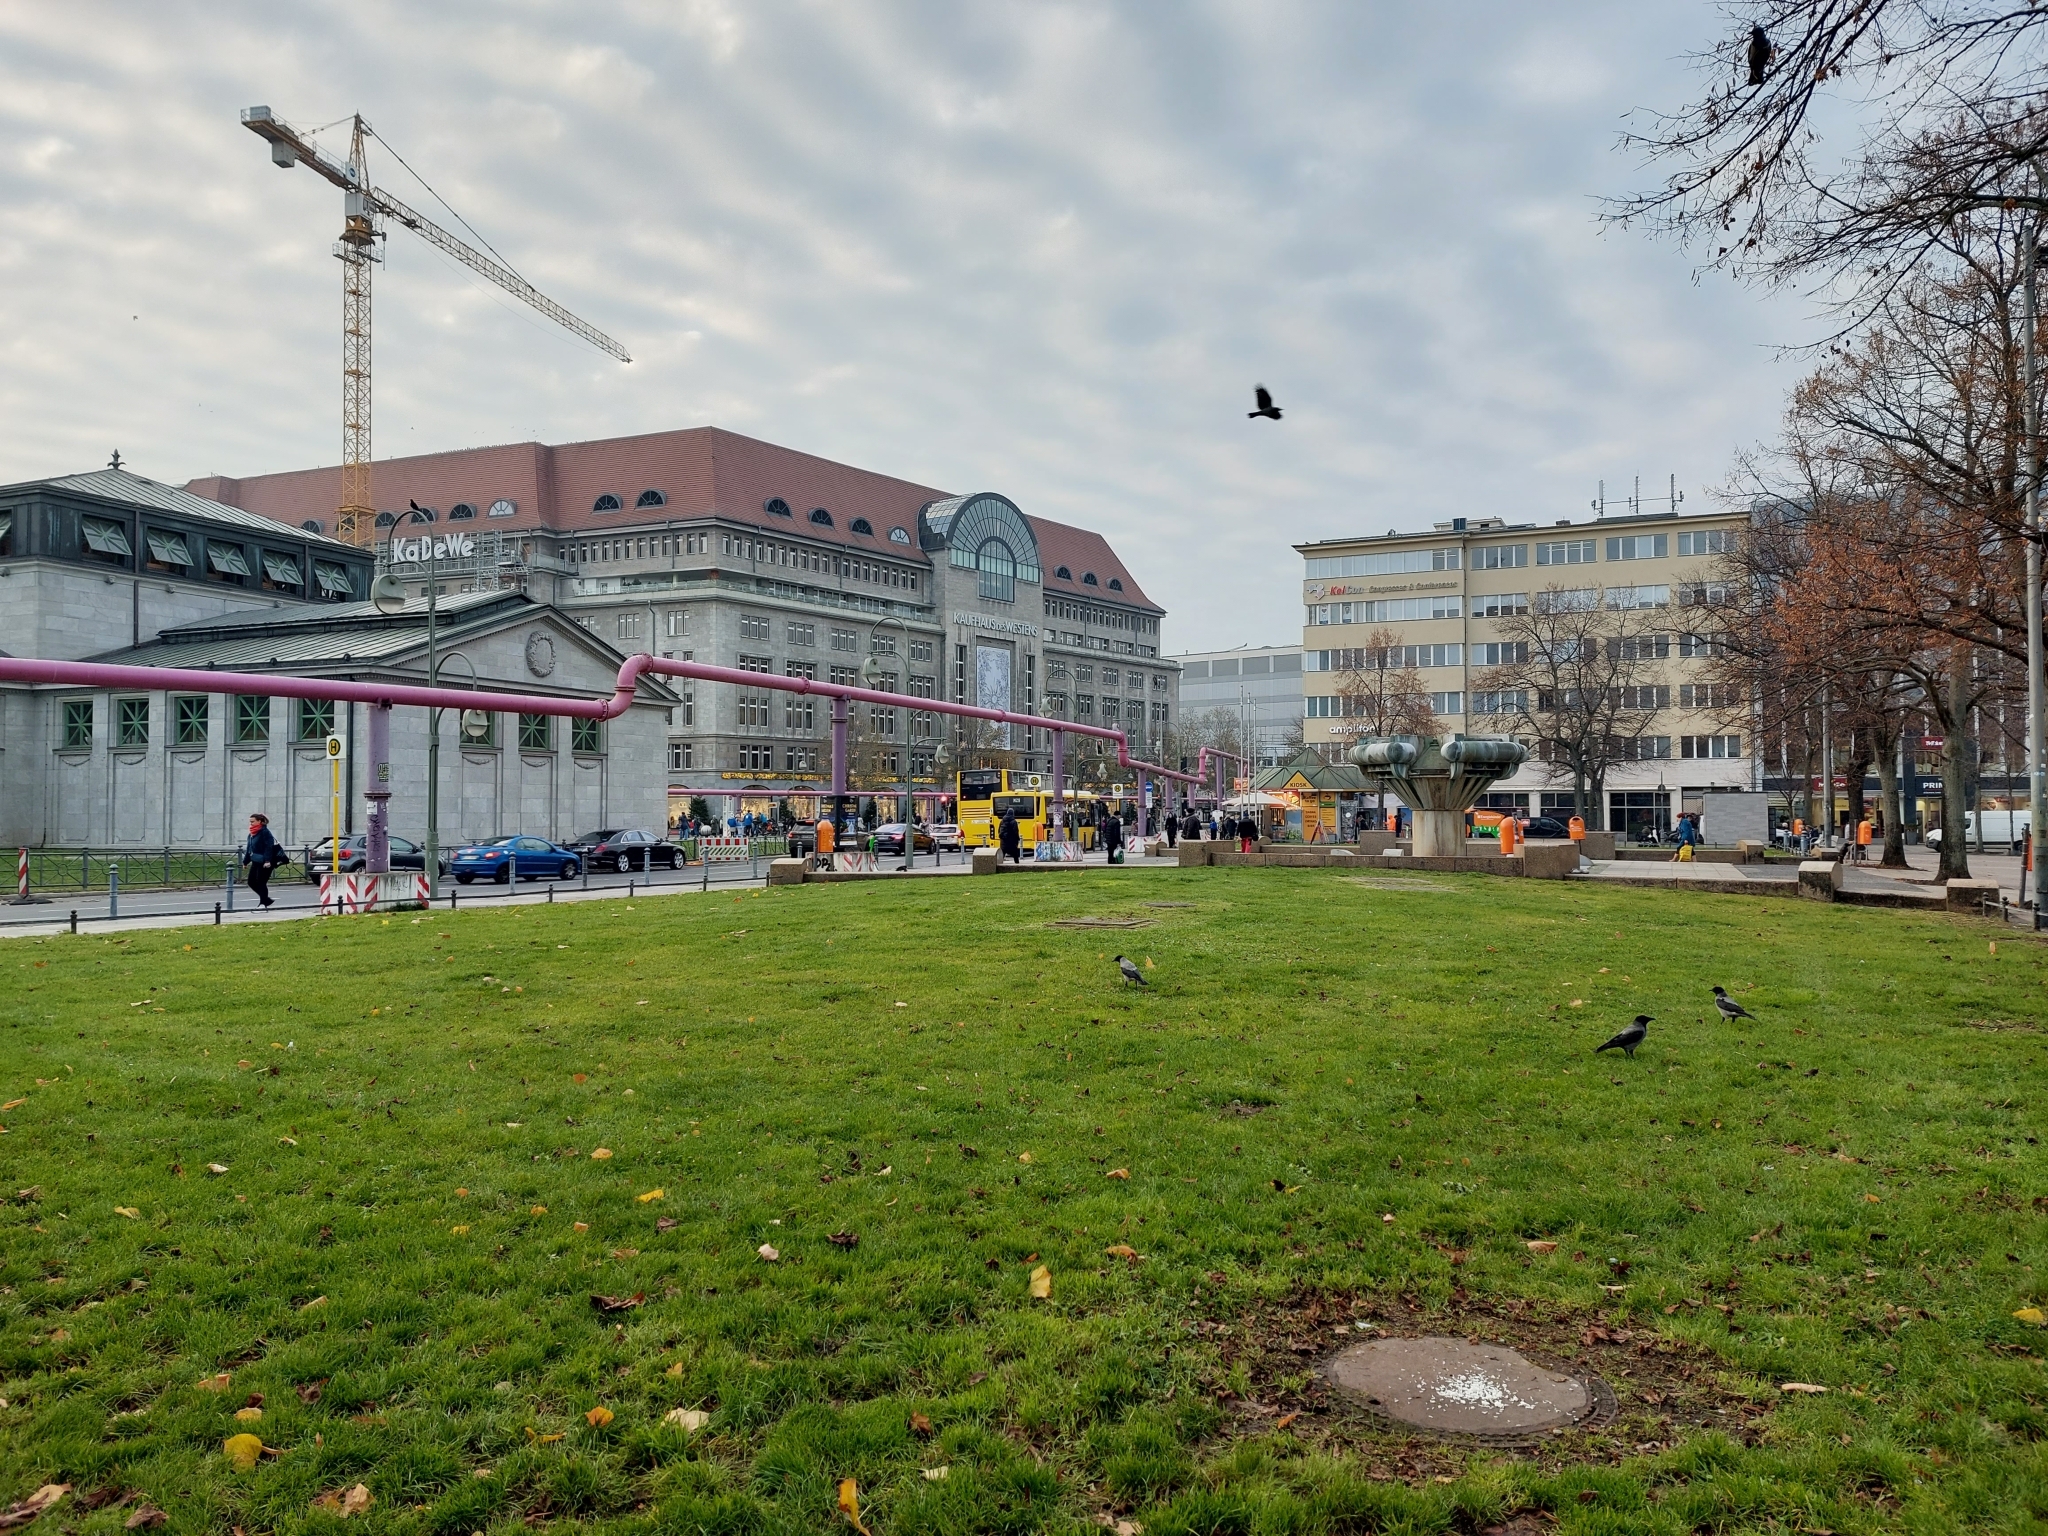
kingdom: Animalia
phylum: Chordata
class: Aves
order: Passeriformes
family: Corvidae
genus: Corvus
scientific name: Corvus cornix
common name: Hooded crow
